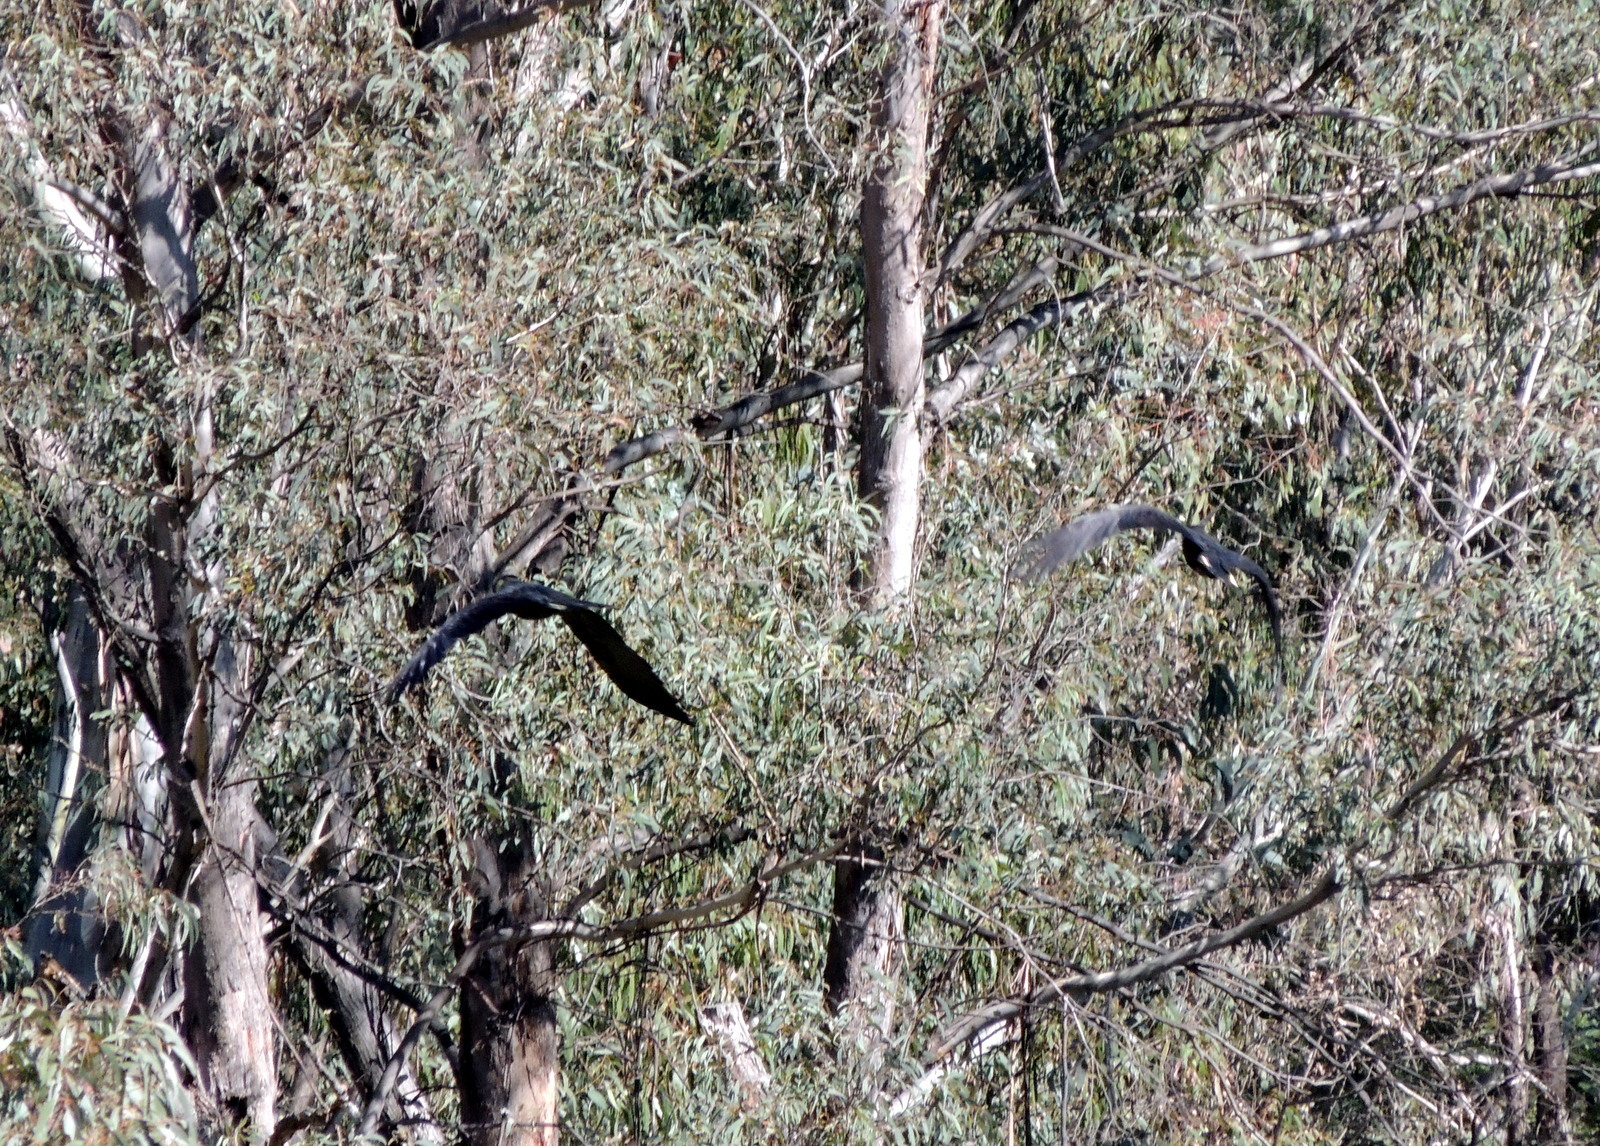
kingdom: Animalia
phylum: Chordata
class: Aves
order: Psittaciformes
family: Cacatuidae
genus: Zanda
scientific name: Zanda funerea
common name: Yellow-tailed black-cockatoo
